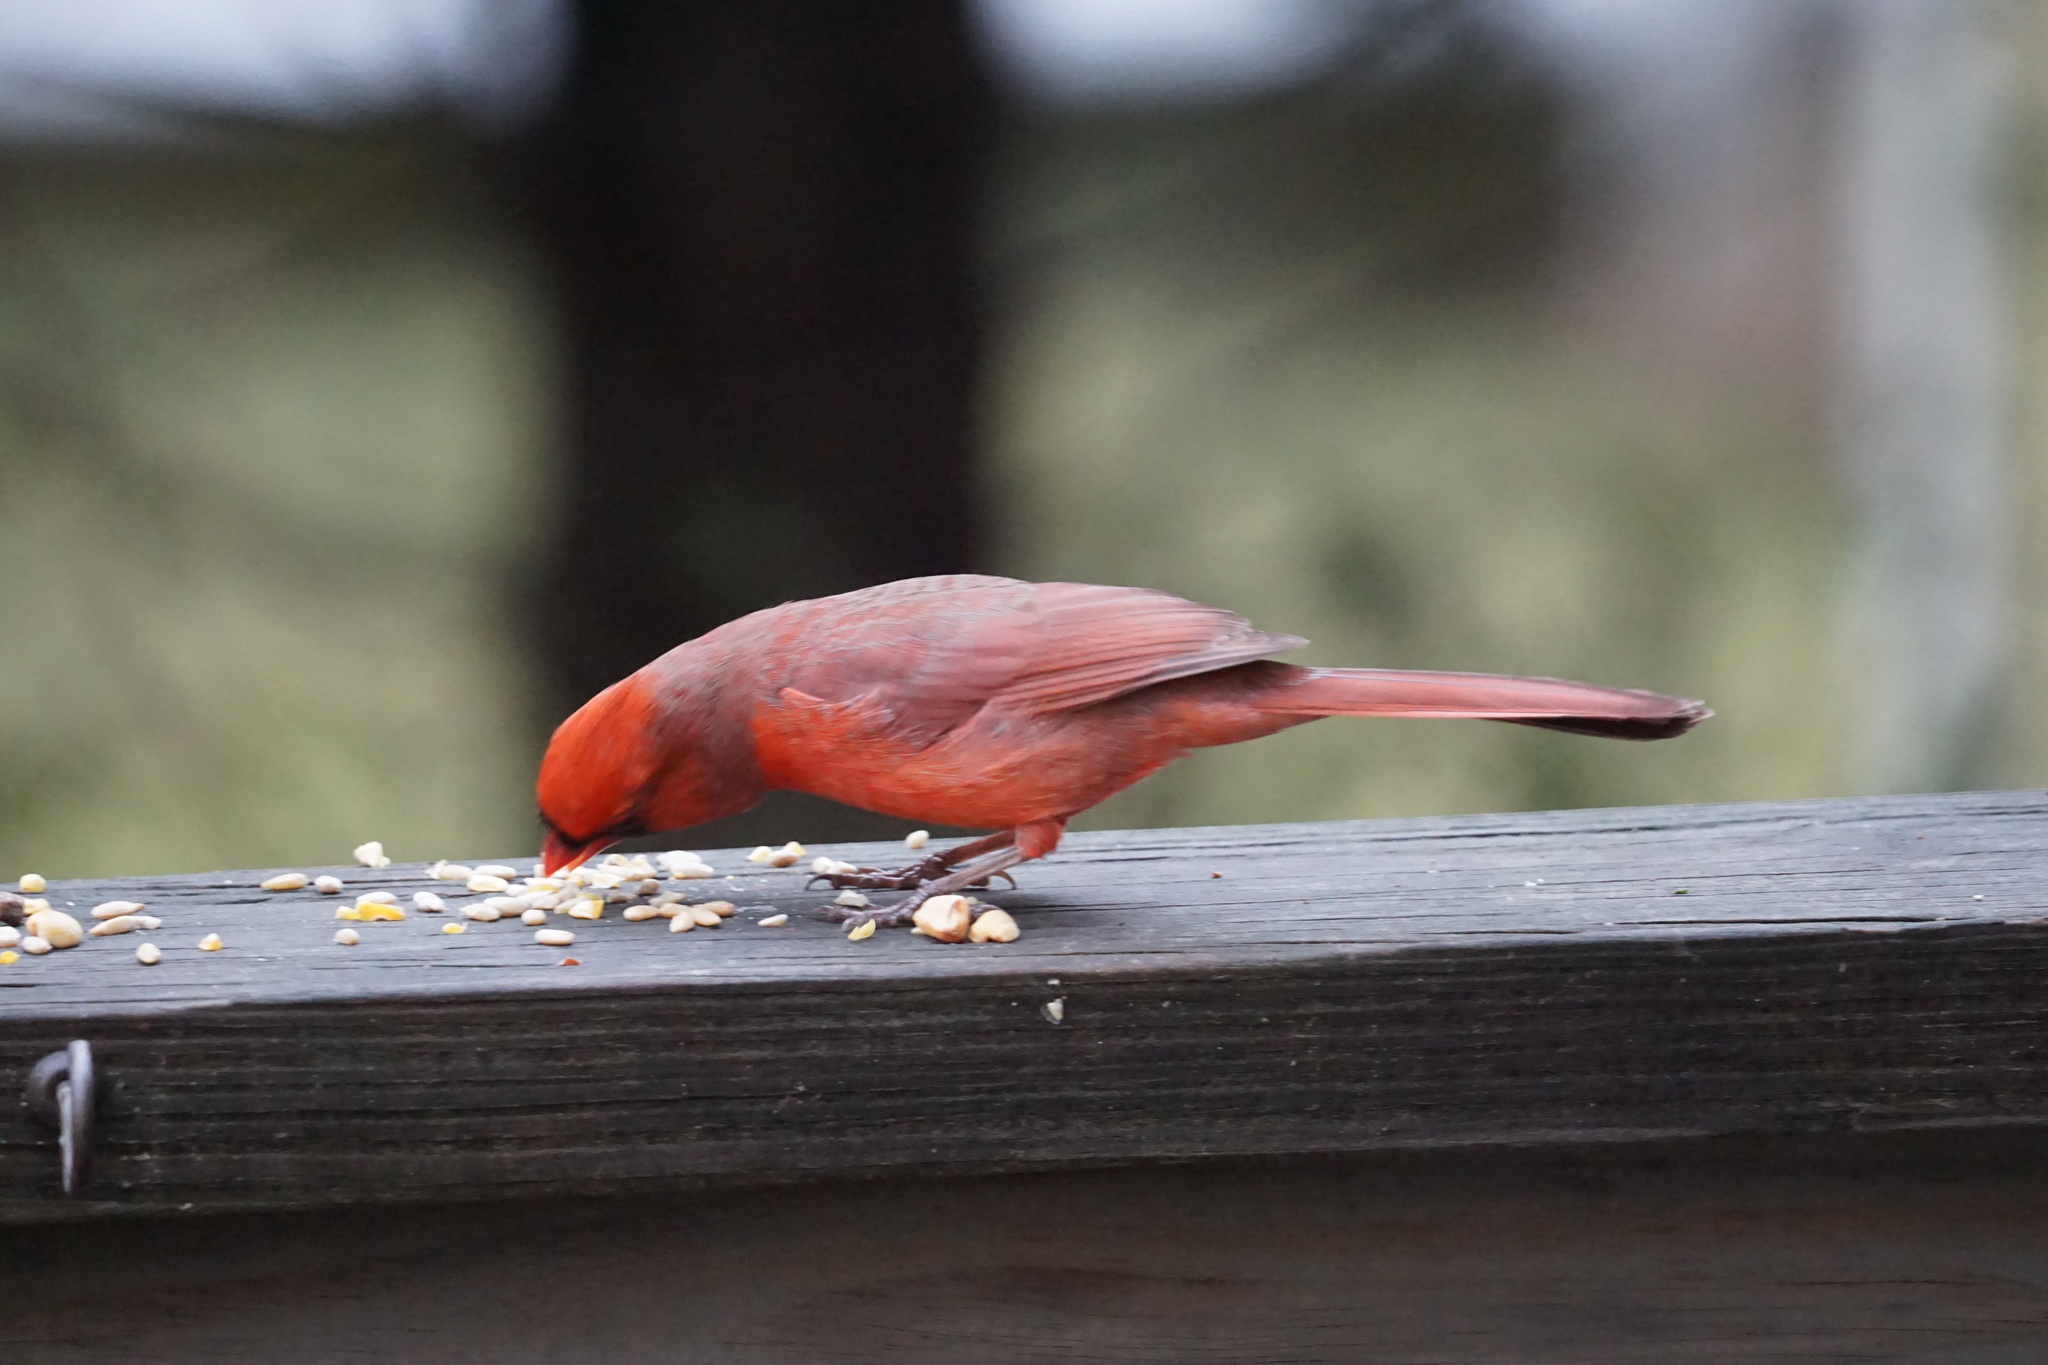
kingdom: Animalia
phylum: Chordata
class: Aves
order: Passeriformes
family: Cardinalidae
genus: Cardinalis
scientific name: Cardinalis cardinalis
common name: Northern cardinal
